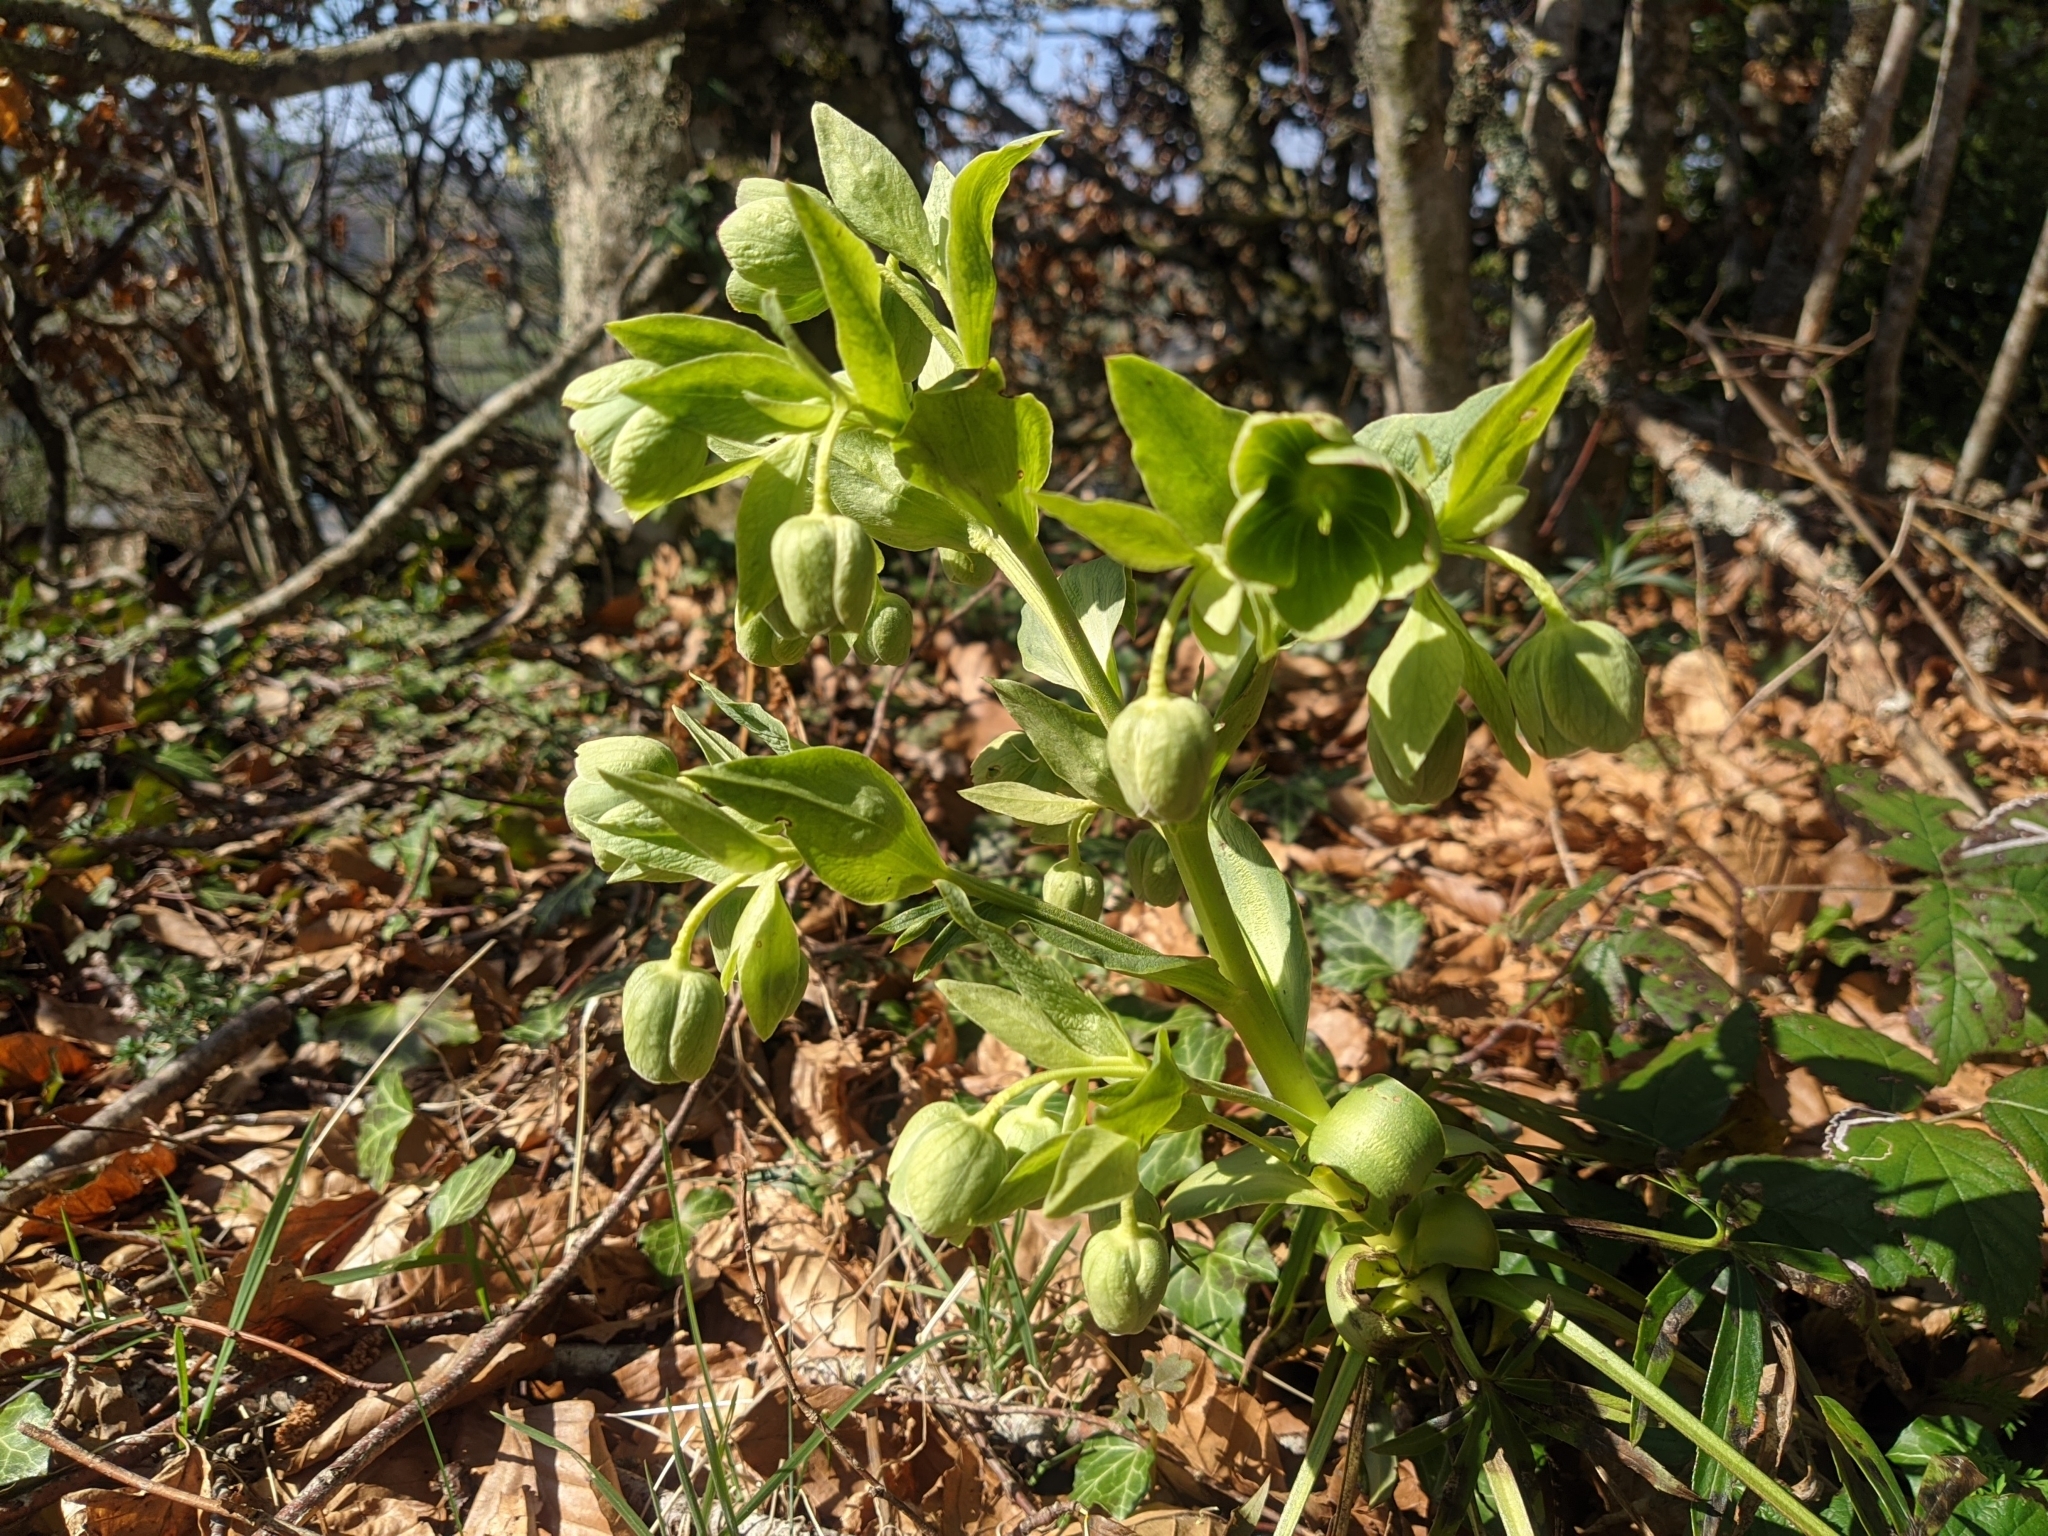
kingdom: Plantae
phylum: Tracheophyta
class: Magnoliopsida
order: Ranunculales
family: Ranunculaceae
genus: Helleborus
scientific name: Helleborus foetidus
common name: Stinking hellebore
